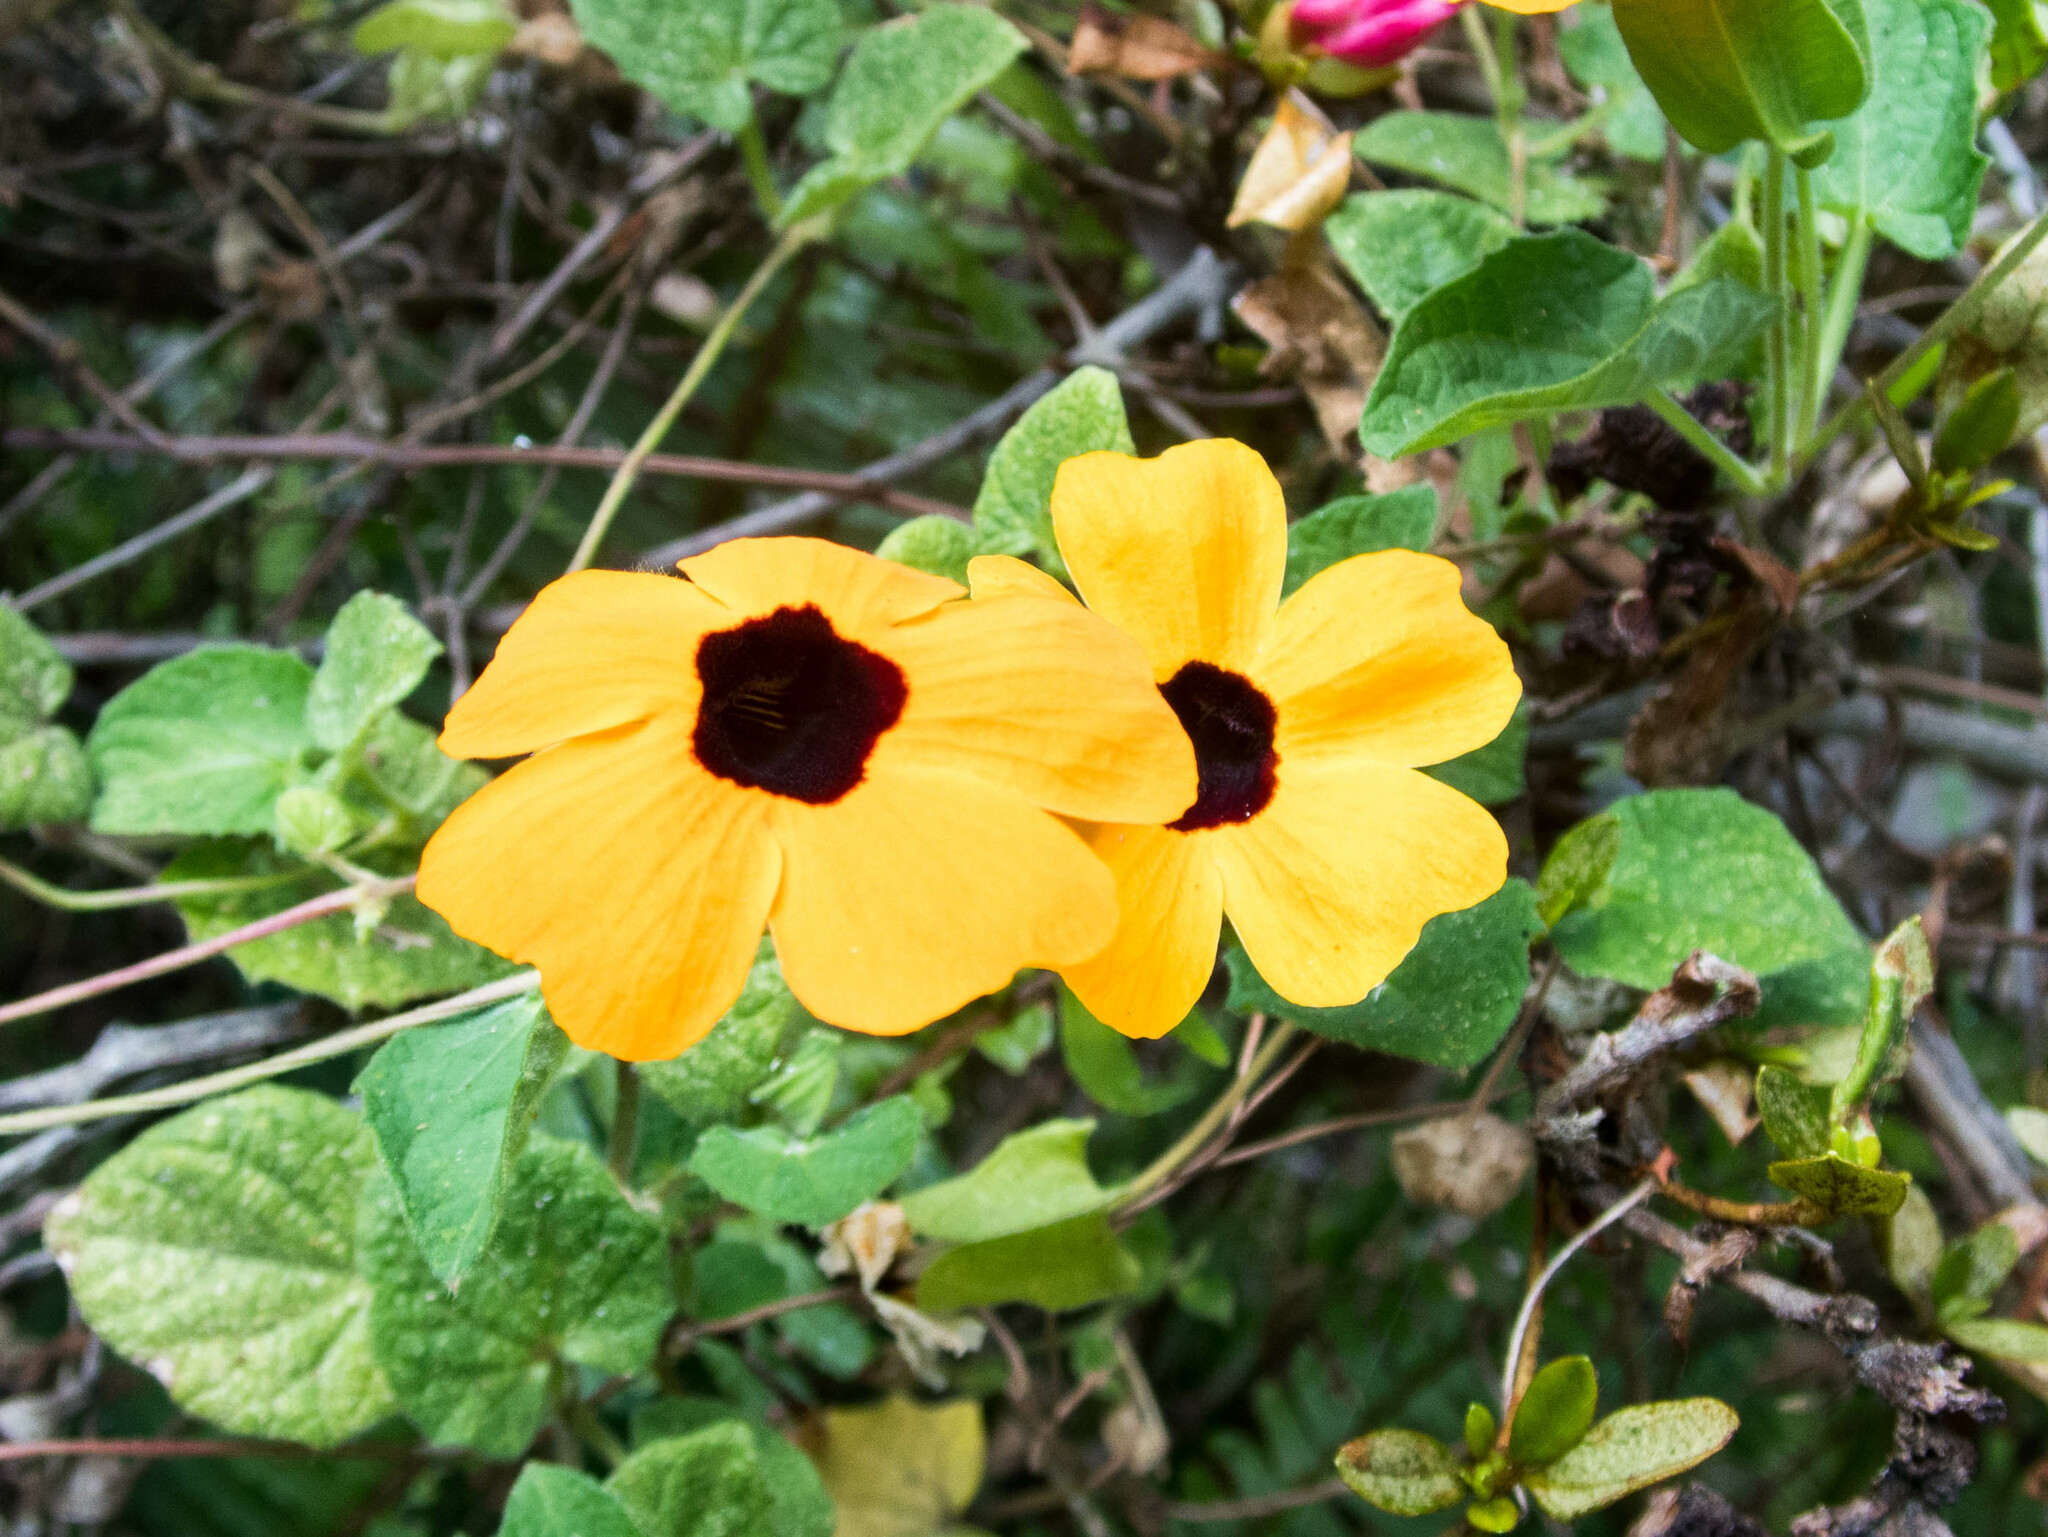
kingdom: Plantae
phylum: Tracheophyta
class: Magnoliopsida
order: Lamiales
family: Acanthaceae
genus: Thunbergia
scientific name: Thunbergia alata
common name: Blackeyed susan vine
